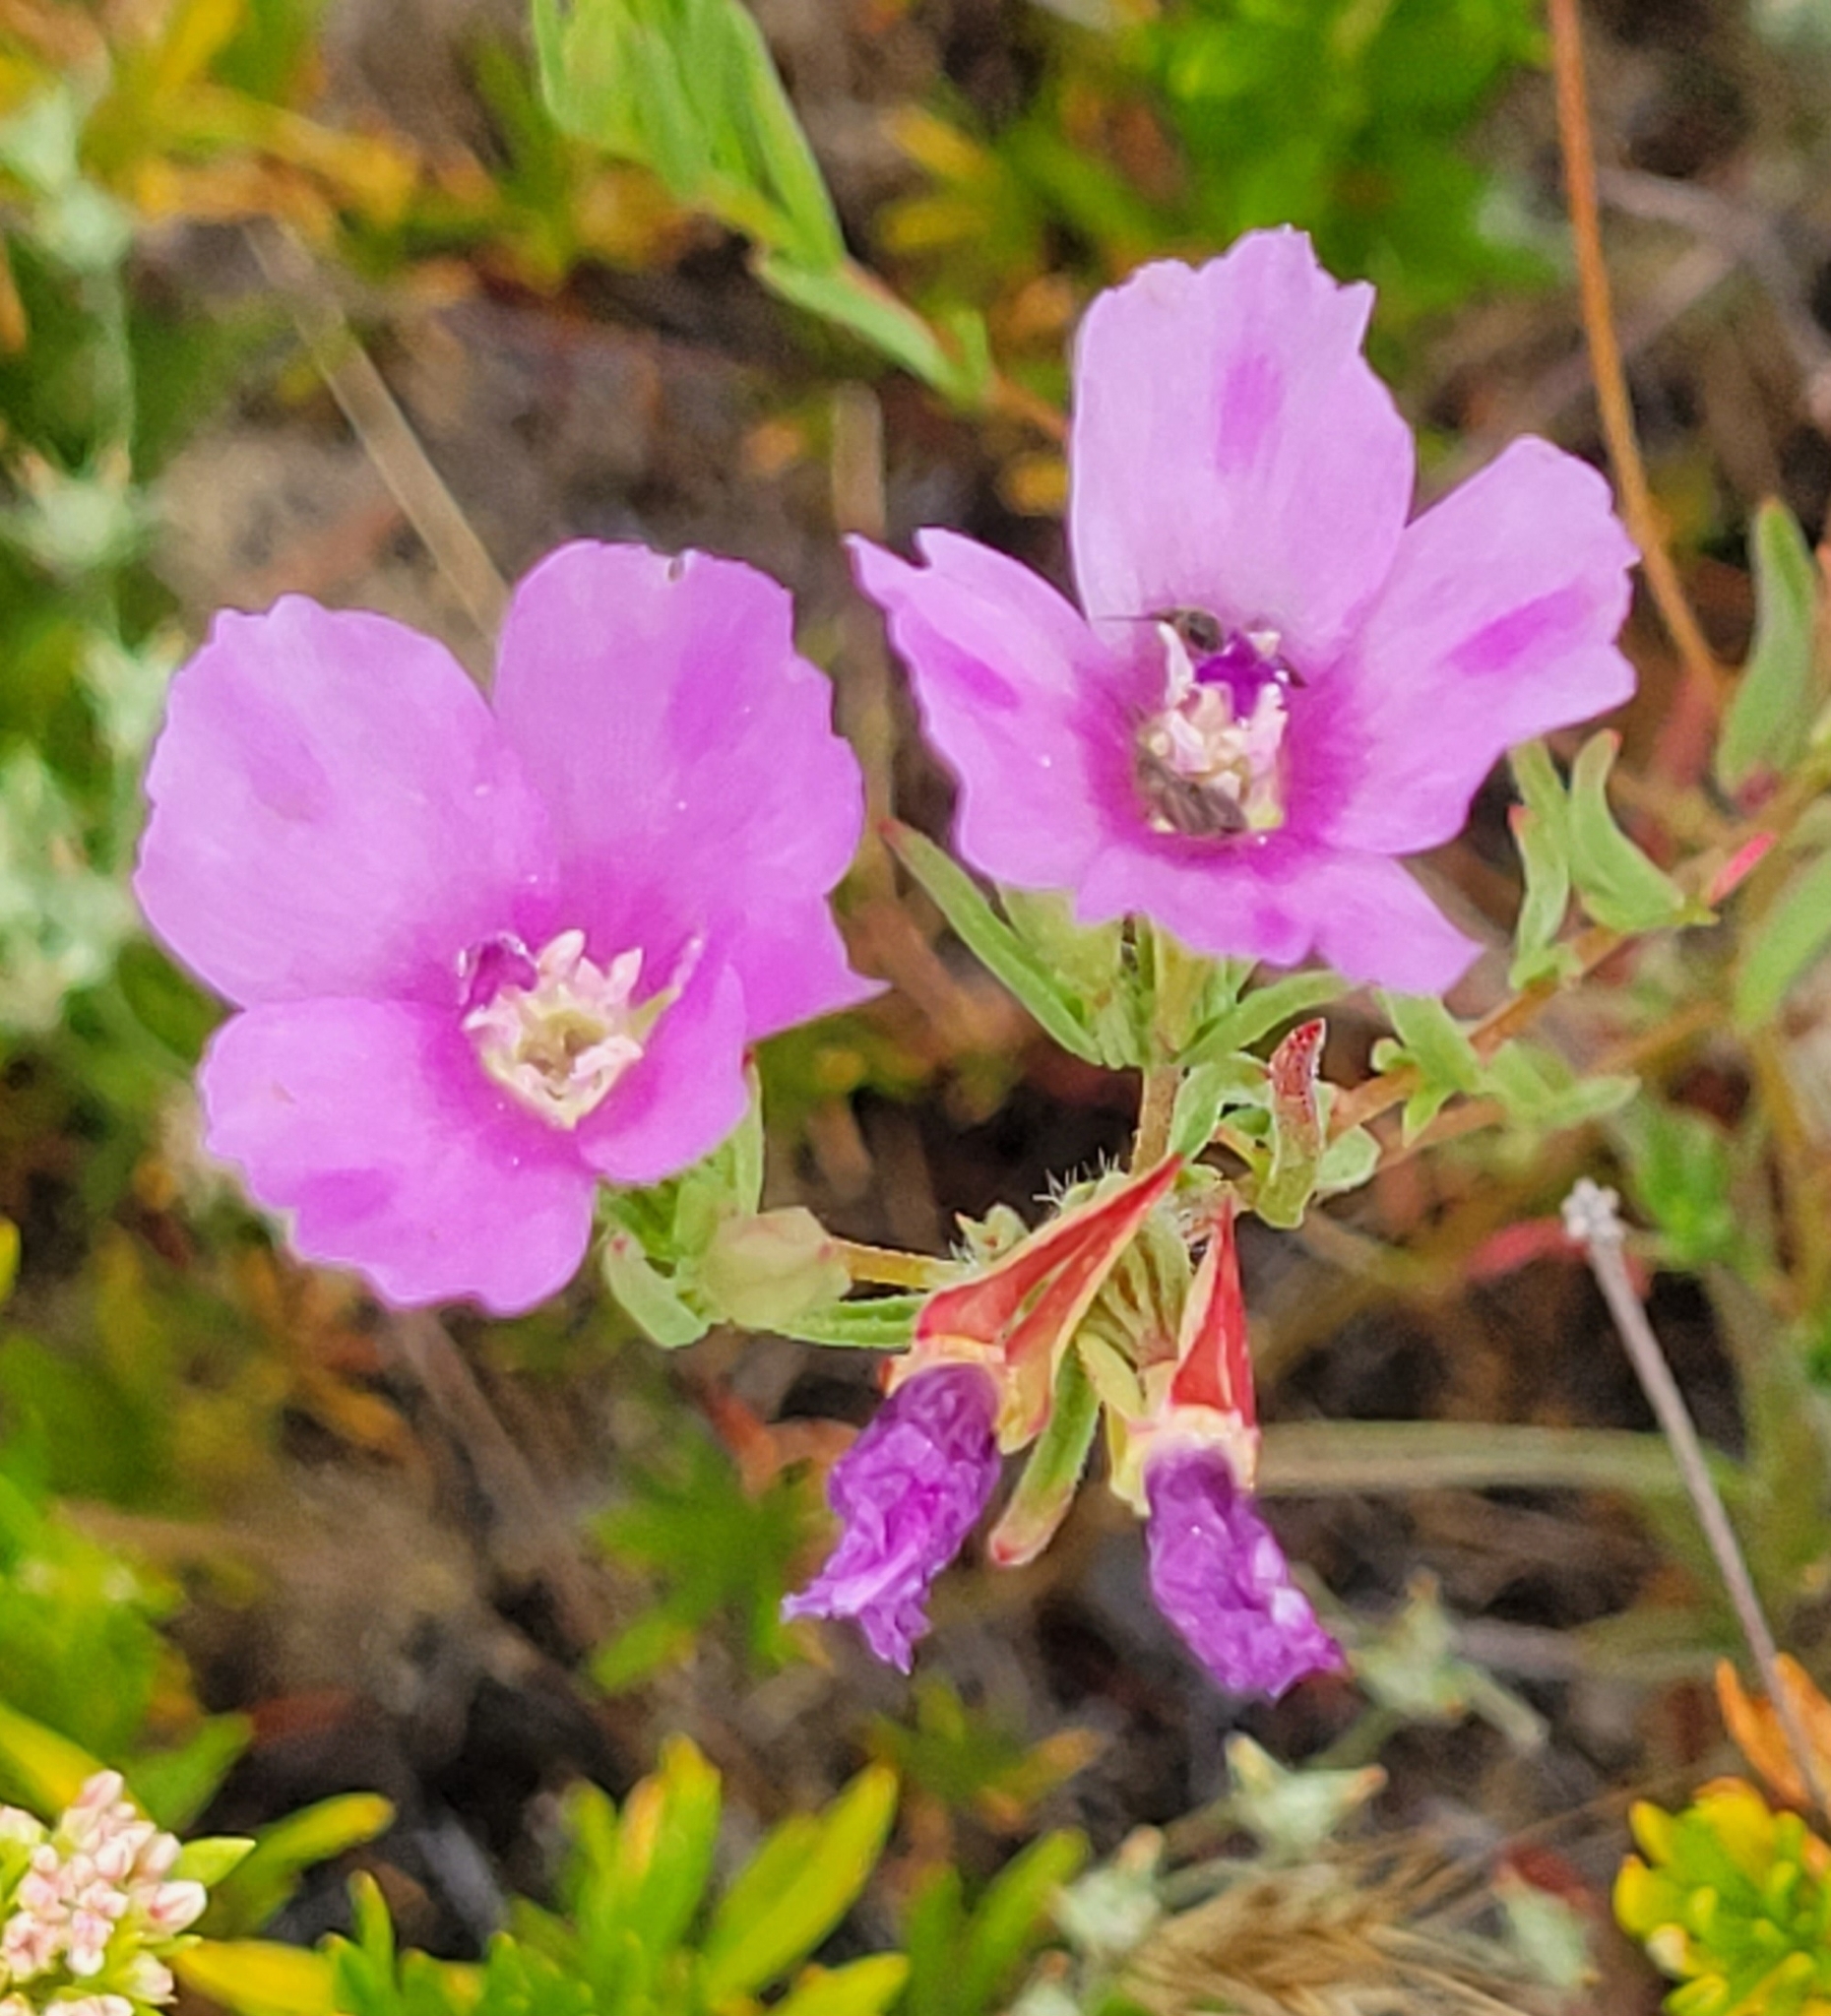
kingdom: Plantae
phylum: Tracheophyta
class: Magnoliopsida
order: Myrtales
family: Onagraceae
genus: Clarkia
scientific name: Clarkia purpurea
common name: Purple clarkia
